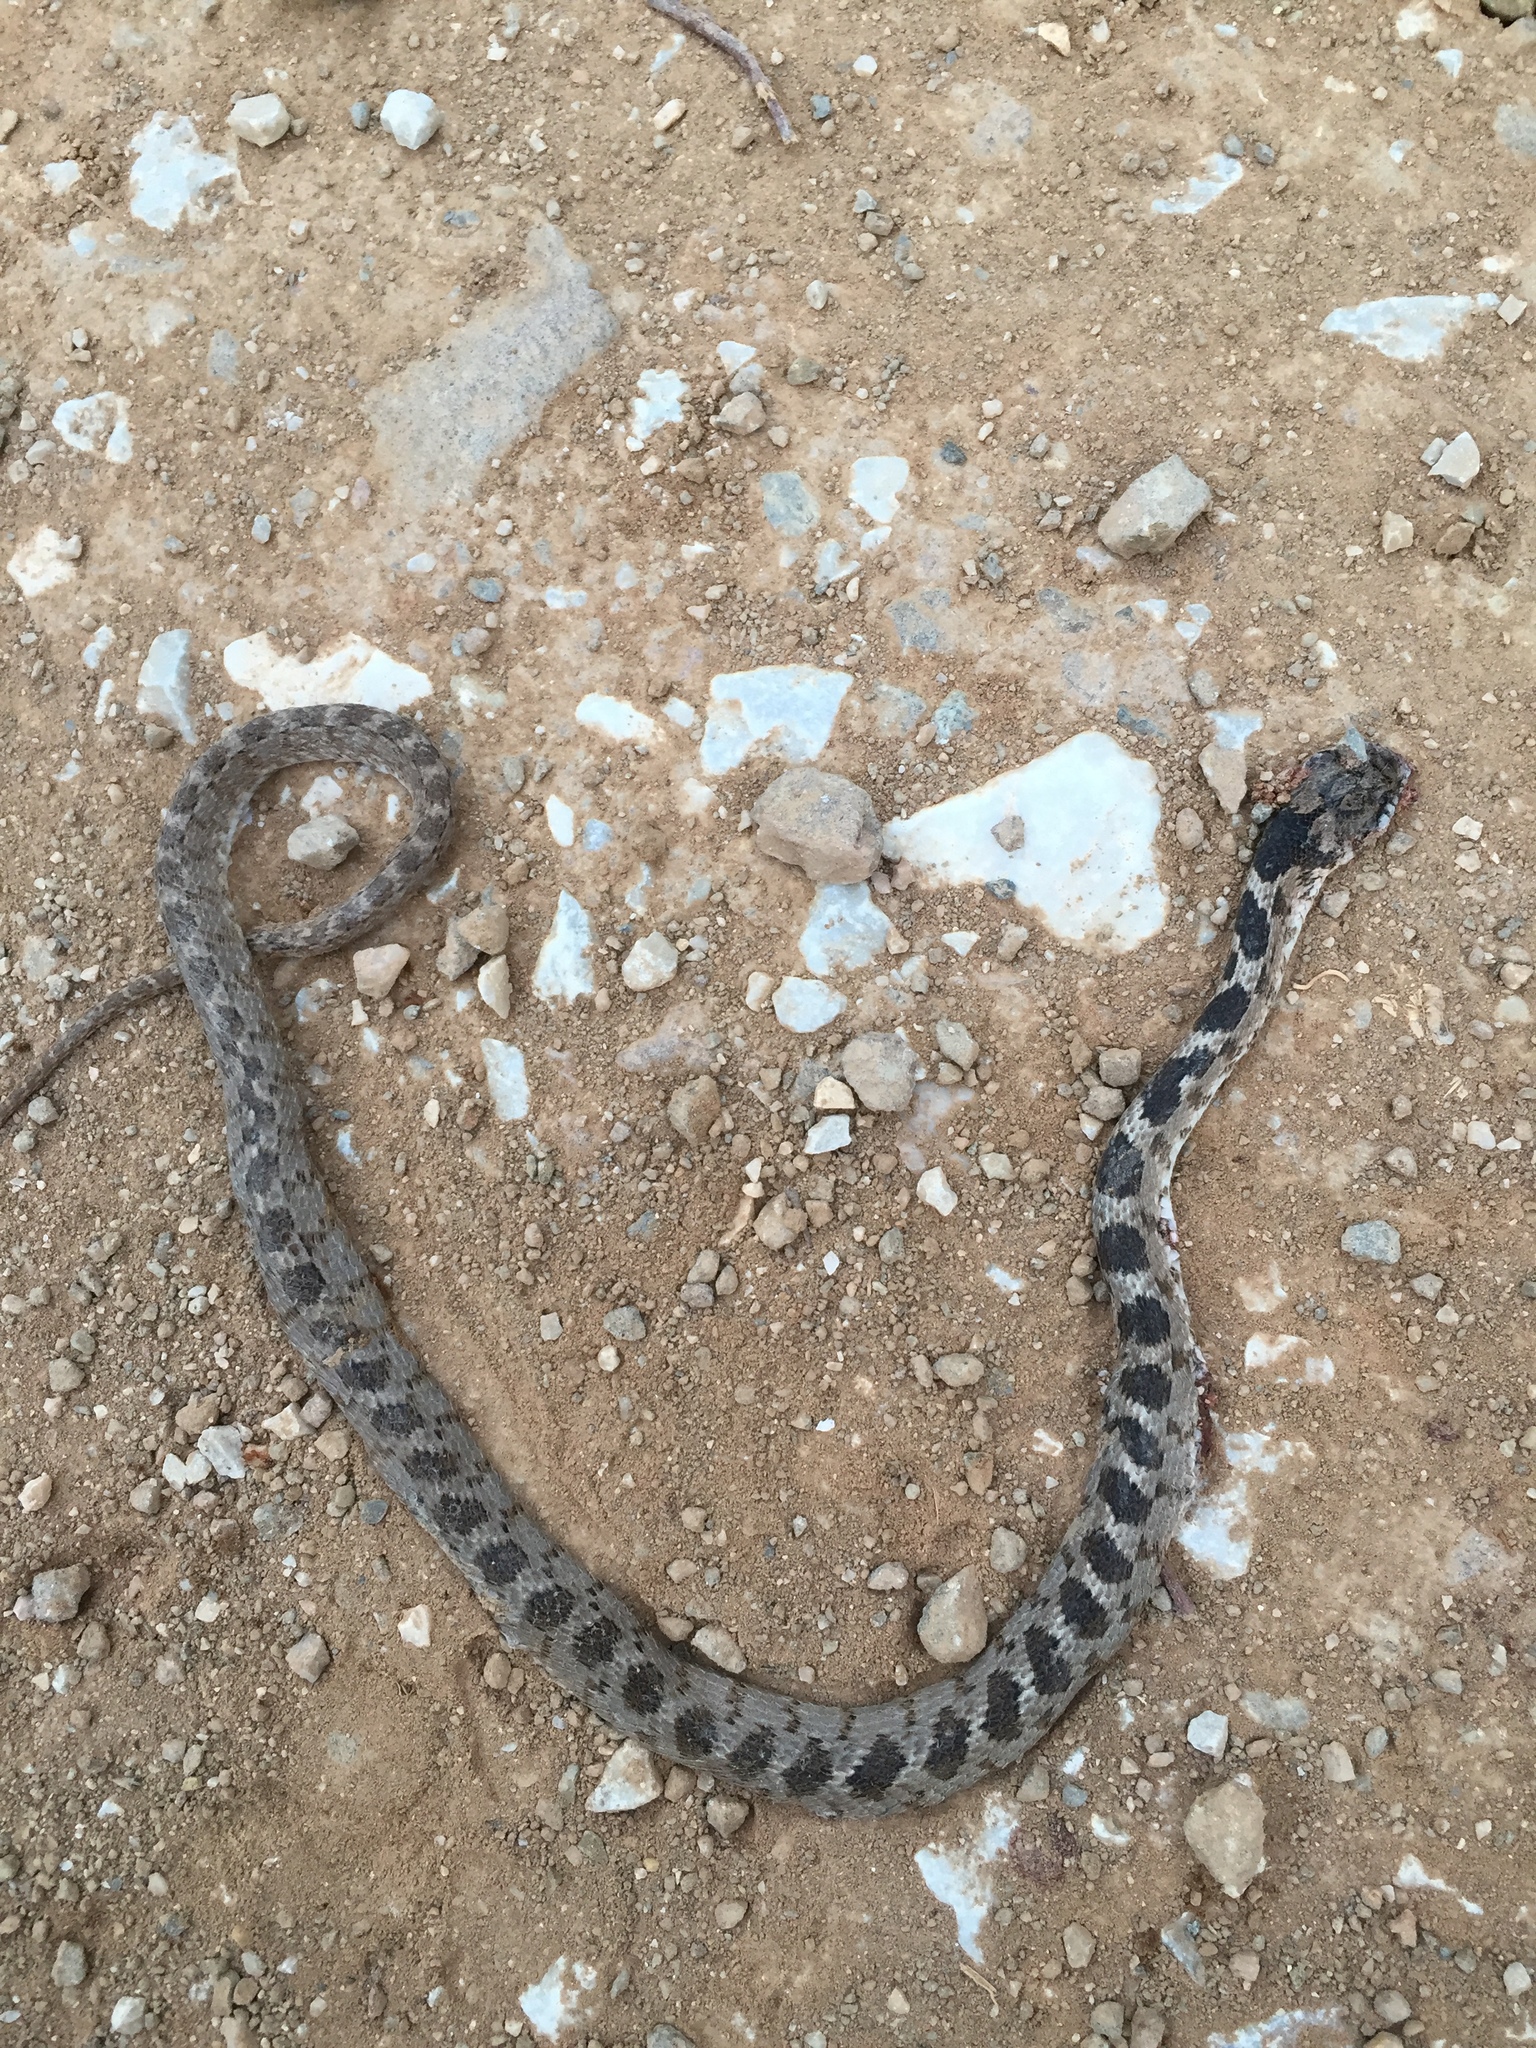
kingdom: Animalia
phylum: Chordata
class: Squamata
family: Colubridae
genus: Telescopus
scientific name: Telescopus fallax
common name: Cat snake
